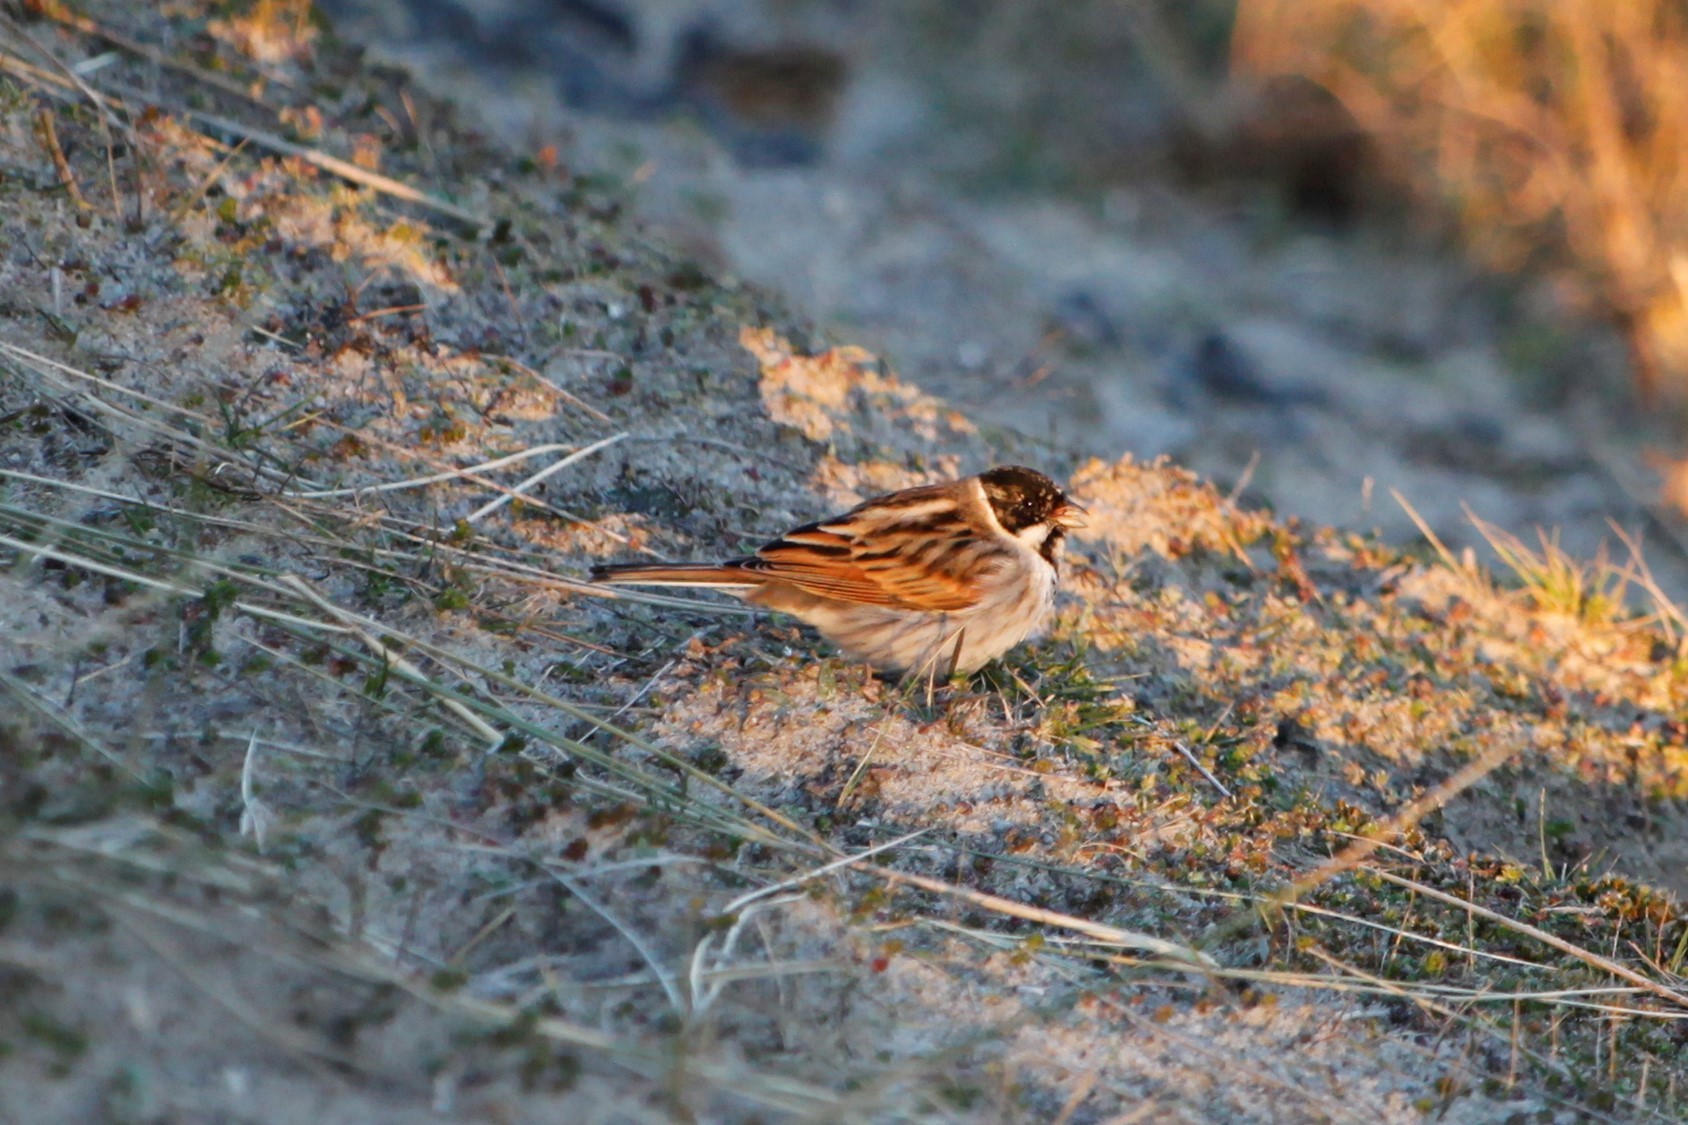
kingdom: Animalia
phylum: Chordata
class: Aves
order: Passeriformes
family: Emberizidae
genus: Emberiza
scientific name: Emberiza schoeniclus
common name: Reed bunting
